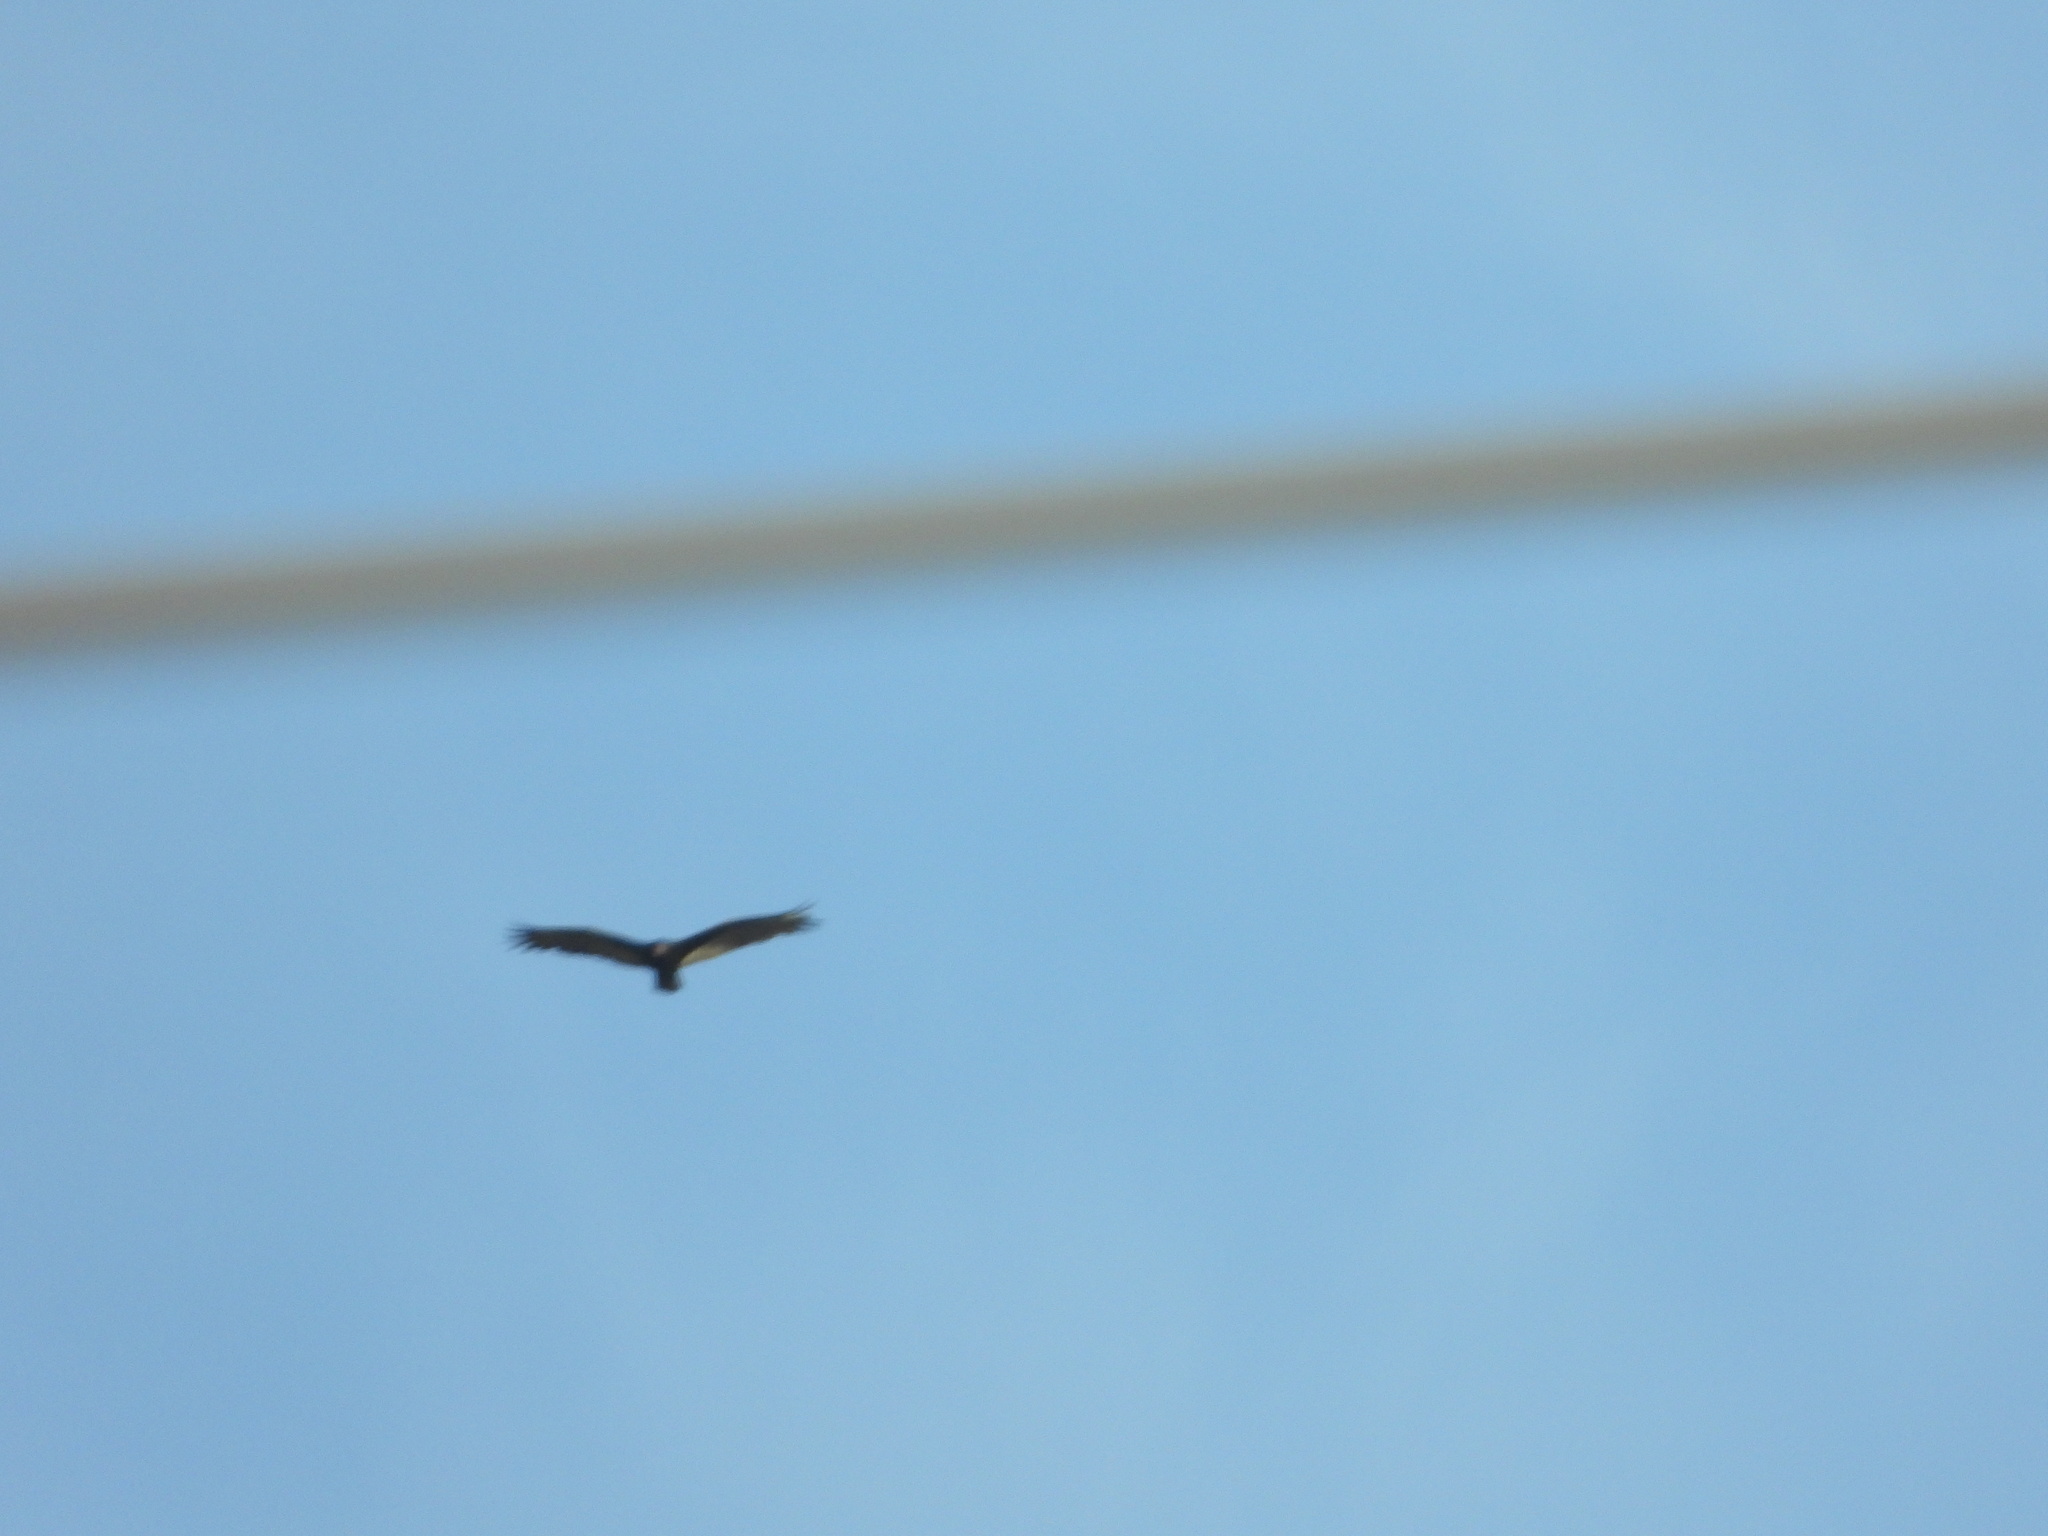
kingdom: Animalia
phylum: Chordata
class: Aves
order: Accipitriformes
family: Cathartidae
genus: Cathartes
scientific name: Cathartes aura
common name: Turkey vulture
